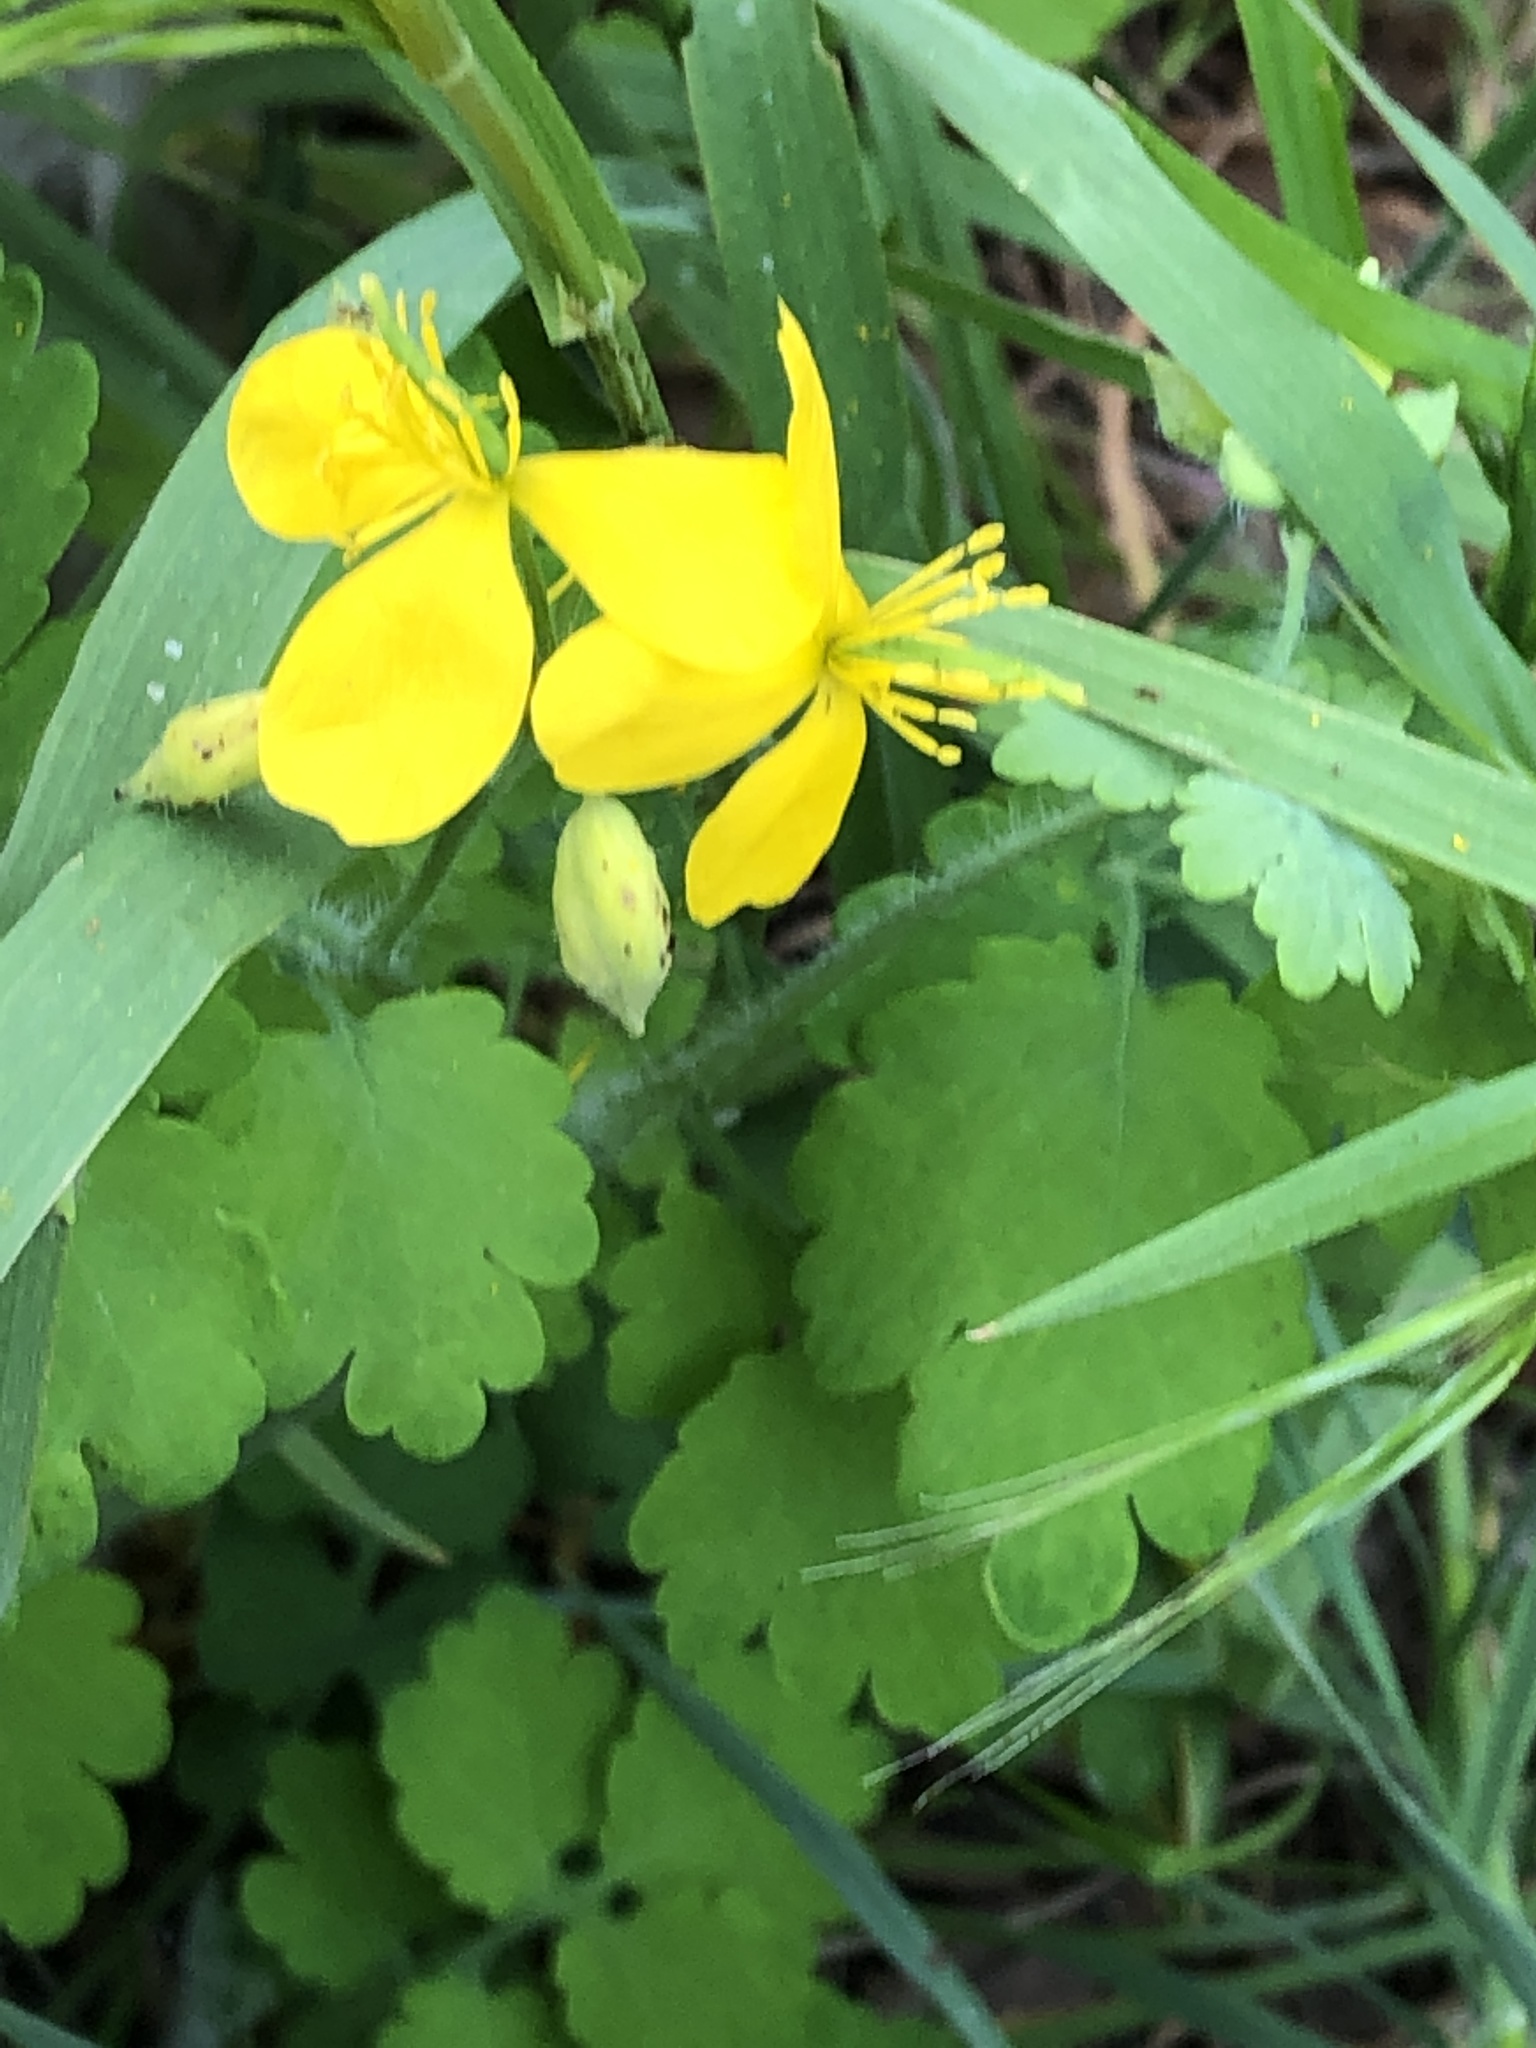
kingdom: Plantae
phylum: Tracheophyta
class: Magnoliopsida
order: Ranunculales
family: Papaveraceae
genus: Chelidonium
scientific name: Chelidonium majus
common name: Greater celandine
